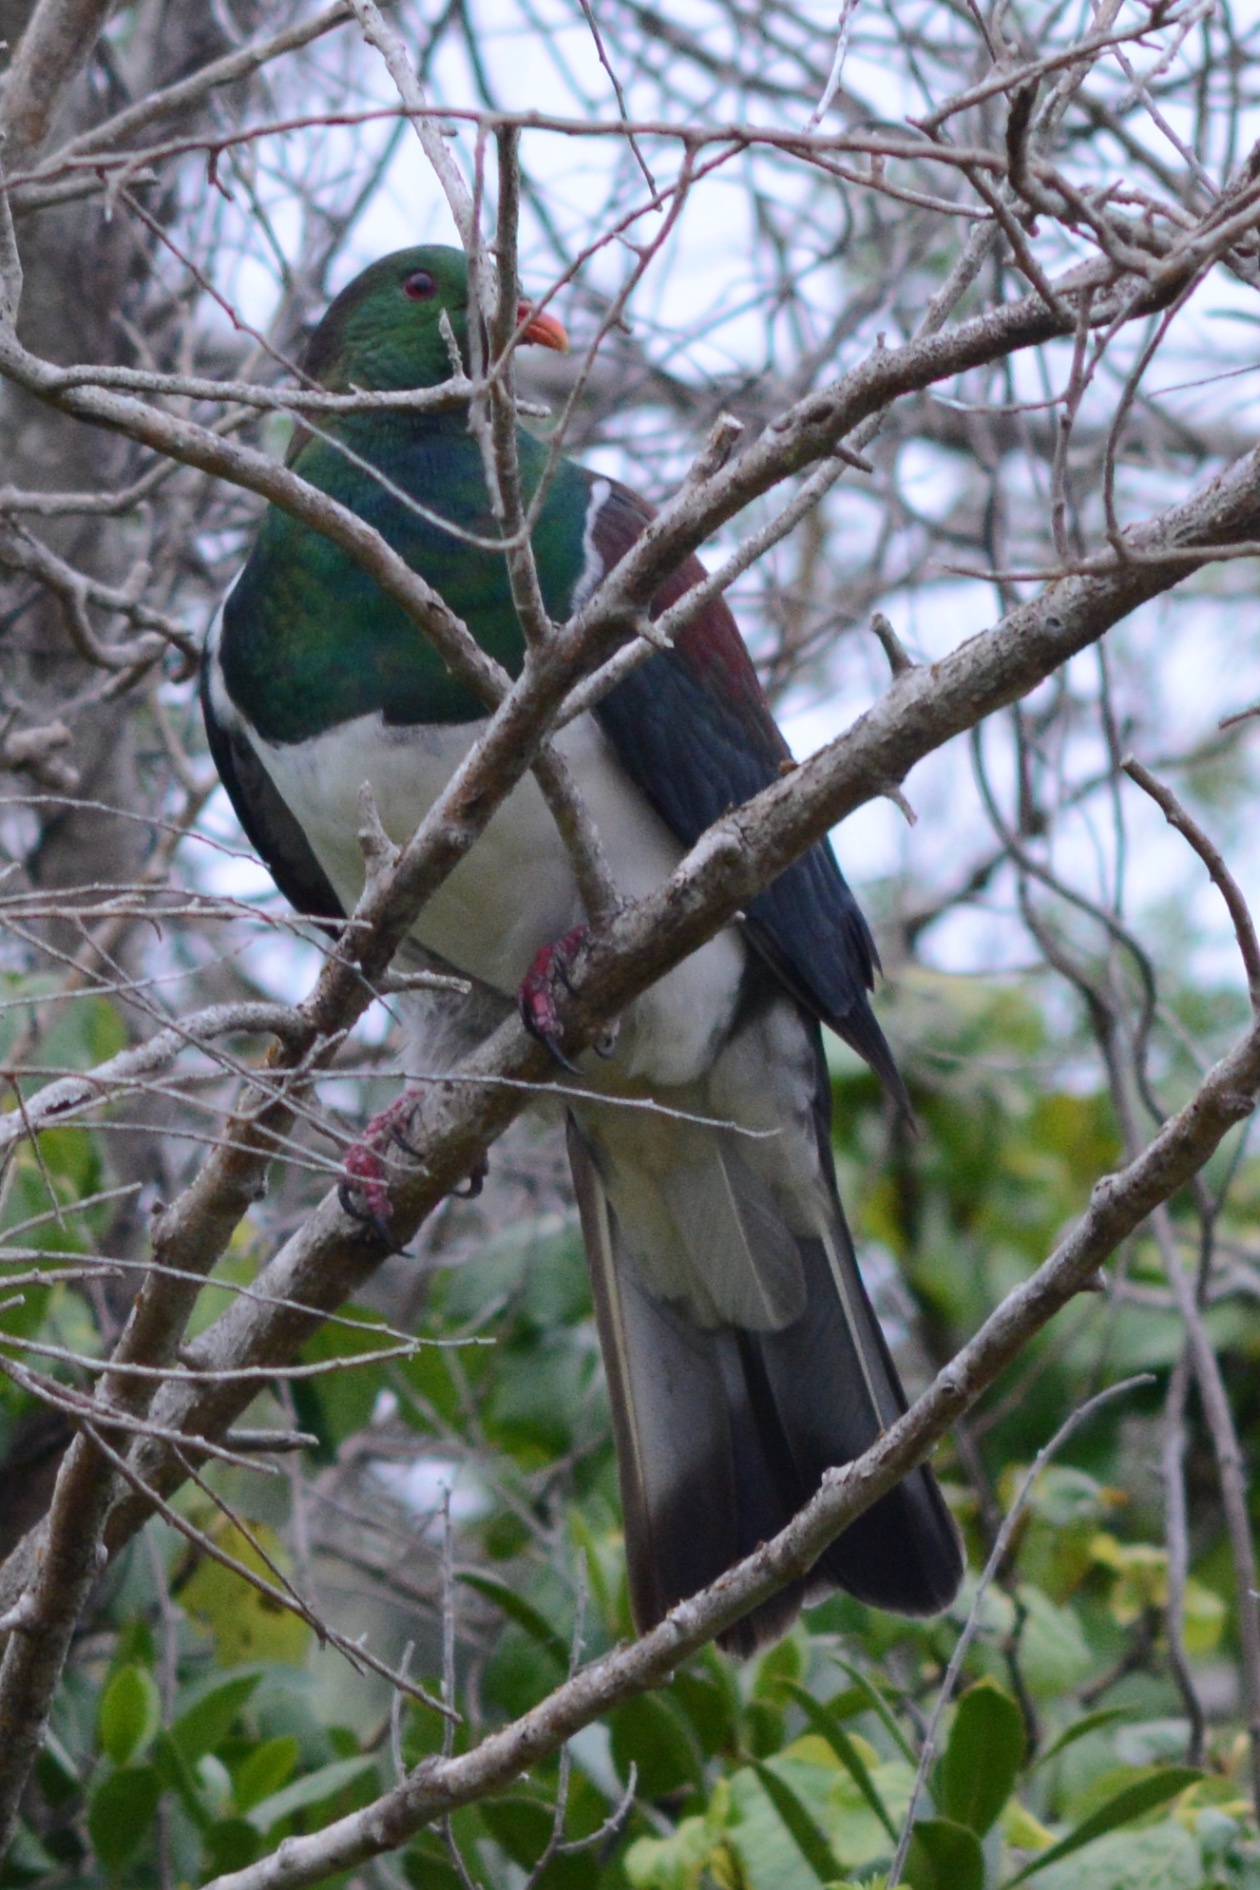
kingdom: Animalia
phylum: Chordata
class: Aves
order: Columbiformes
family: Columbidae
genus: Hemiphaga
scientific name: Hemiphaga novaeseelandiae
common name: New zealand pigeon
